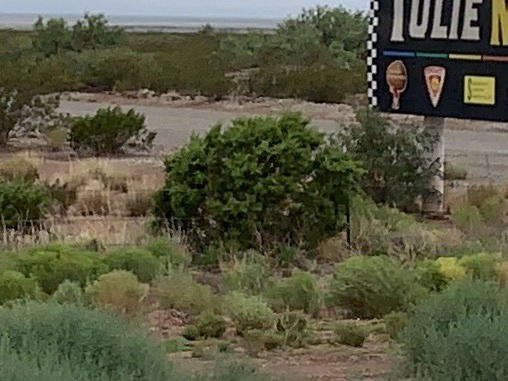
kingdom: Plantae
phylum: Tracheophyta
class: Magnoliopsida
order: Zygophyllales
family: Zygophyllaceae
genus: Larrea
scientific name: Larrea tridentata
